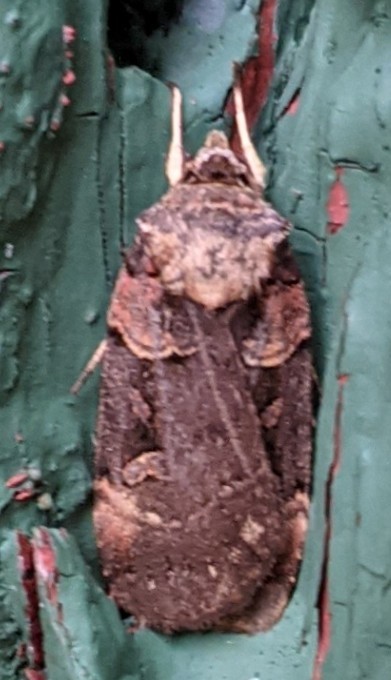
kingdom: Animalia
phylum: Arthropoda
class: Insecta
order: Lepidoptera
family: Noctuidae
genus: Pseudohermonassa
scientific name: Pseudohermonassa bicarnea
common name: Pink spotted dart
